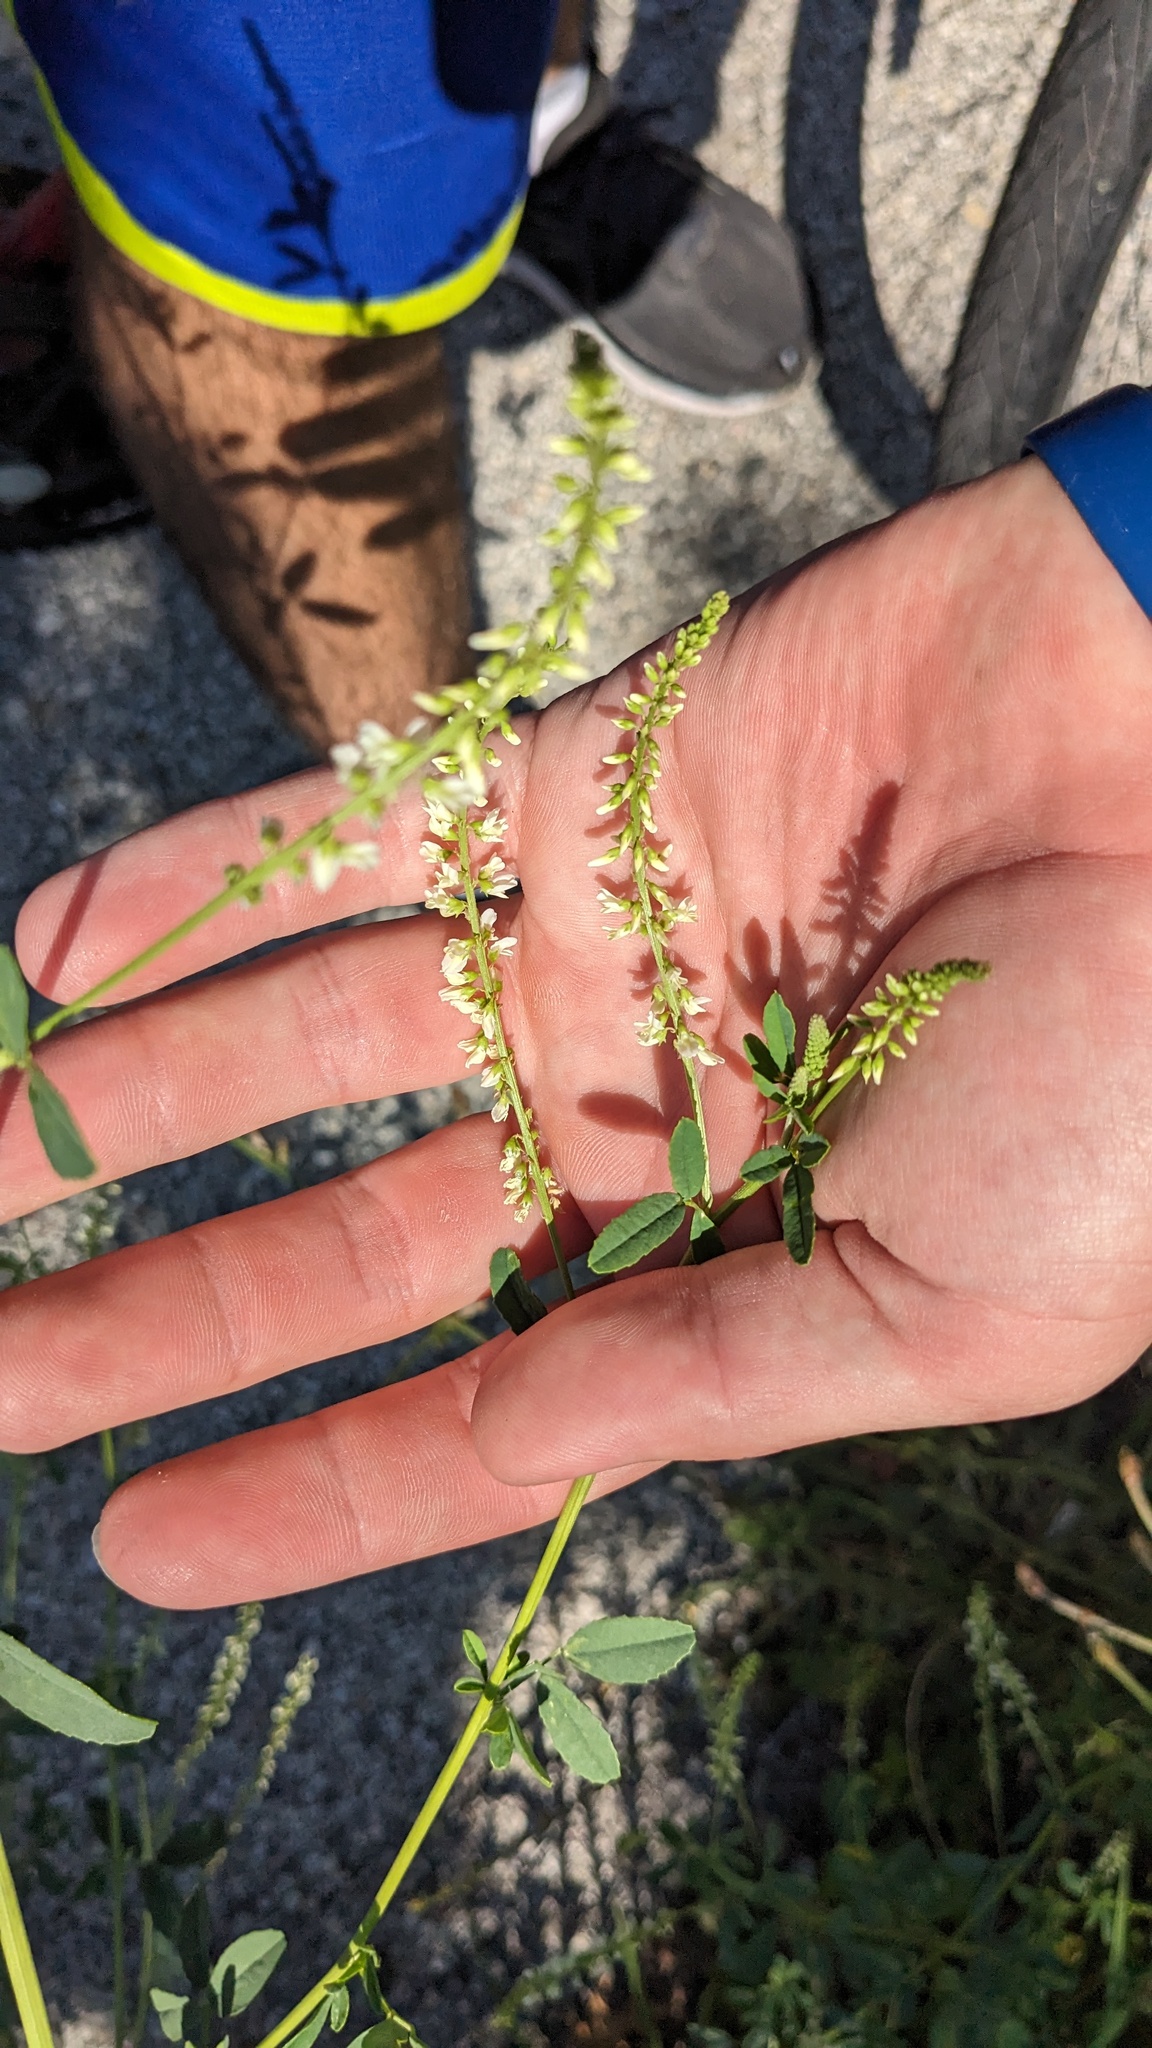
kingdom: Plantae
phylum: Tracheophyta
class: Magnoliopsida
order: Fabales
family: Fabaceae
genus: Melilotus
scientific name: Melilotus albus
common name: White melilot
